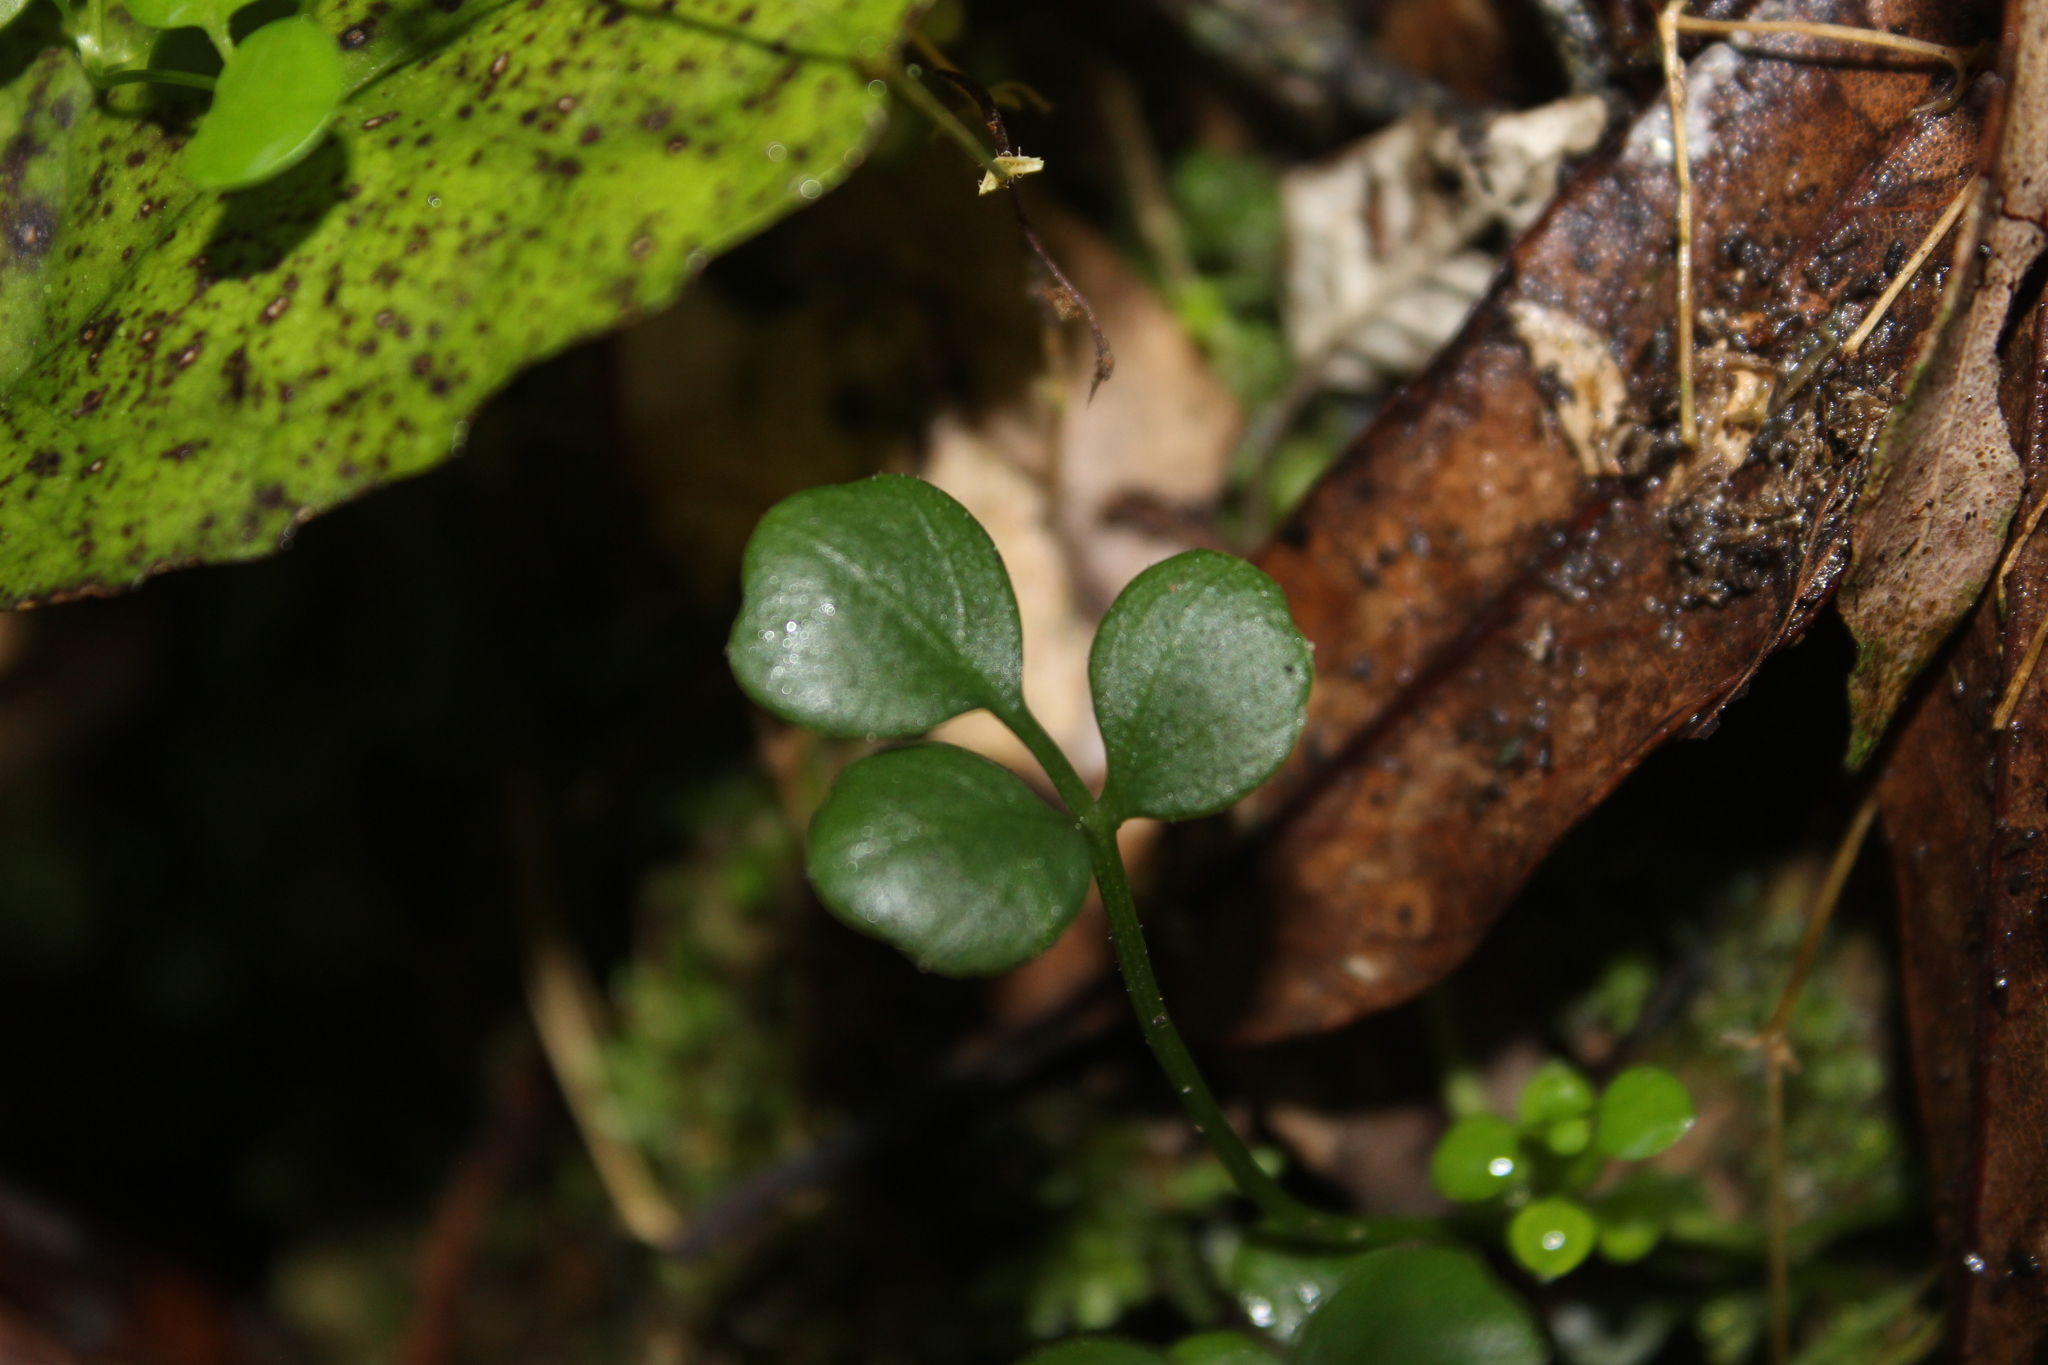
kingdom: Plantae
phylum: Tracheophyta
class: Magnoliopsida
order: Apiales
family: Apiaceae
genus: Azorella
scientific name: Azorella hookeri
